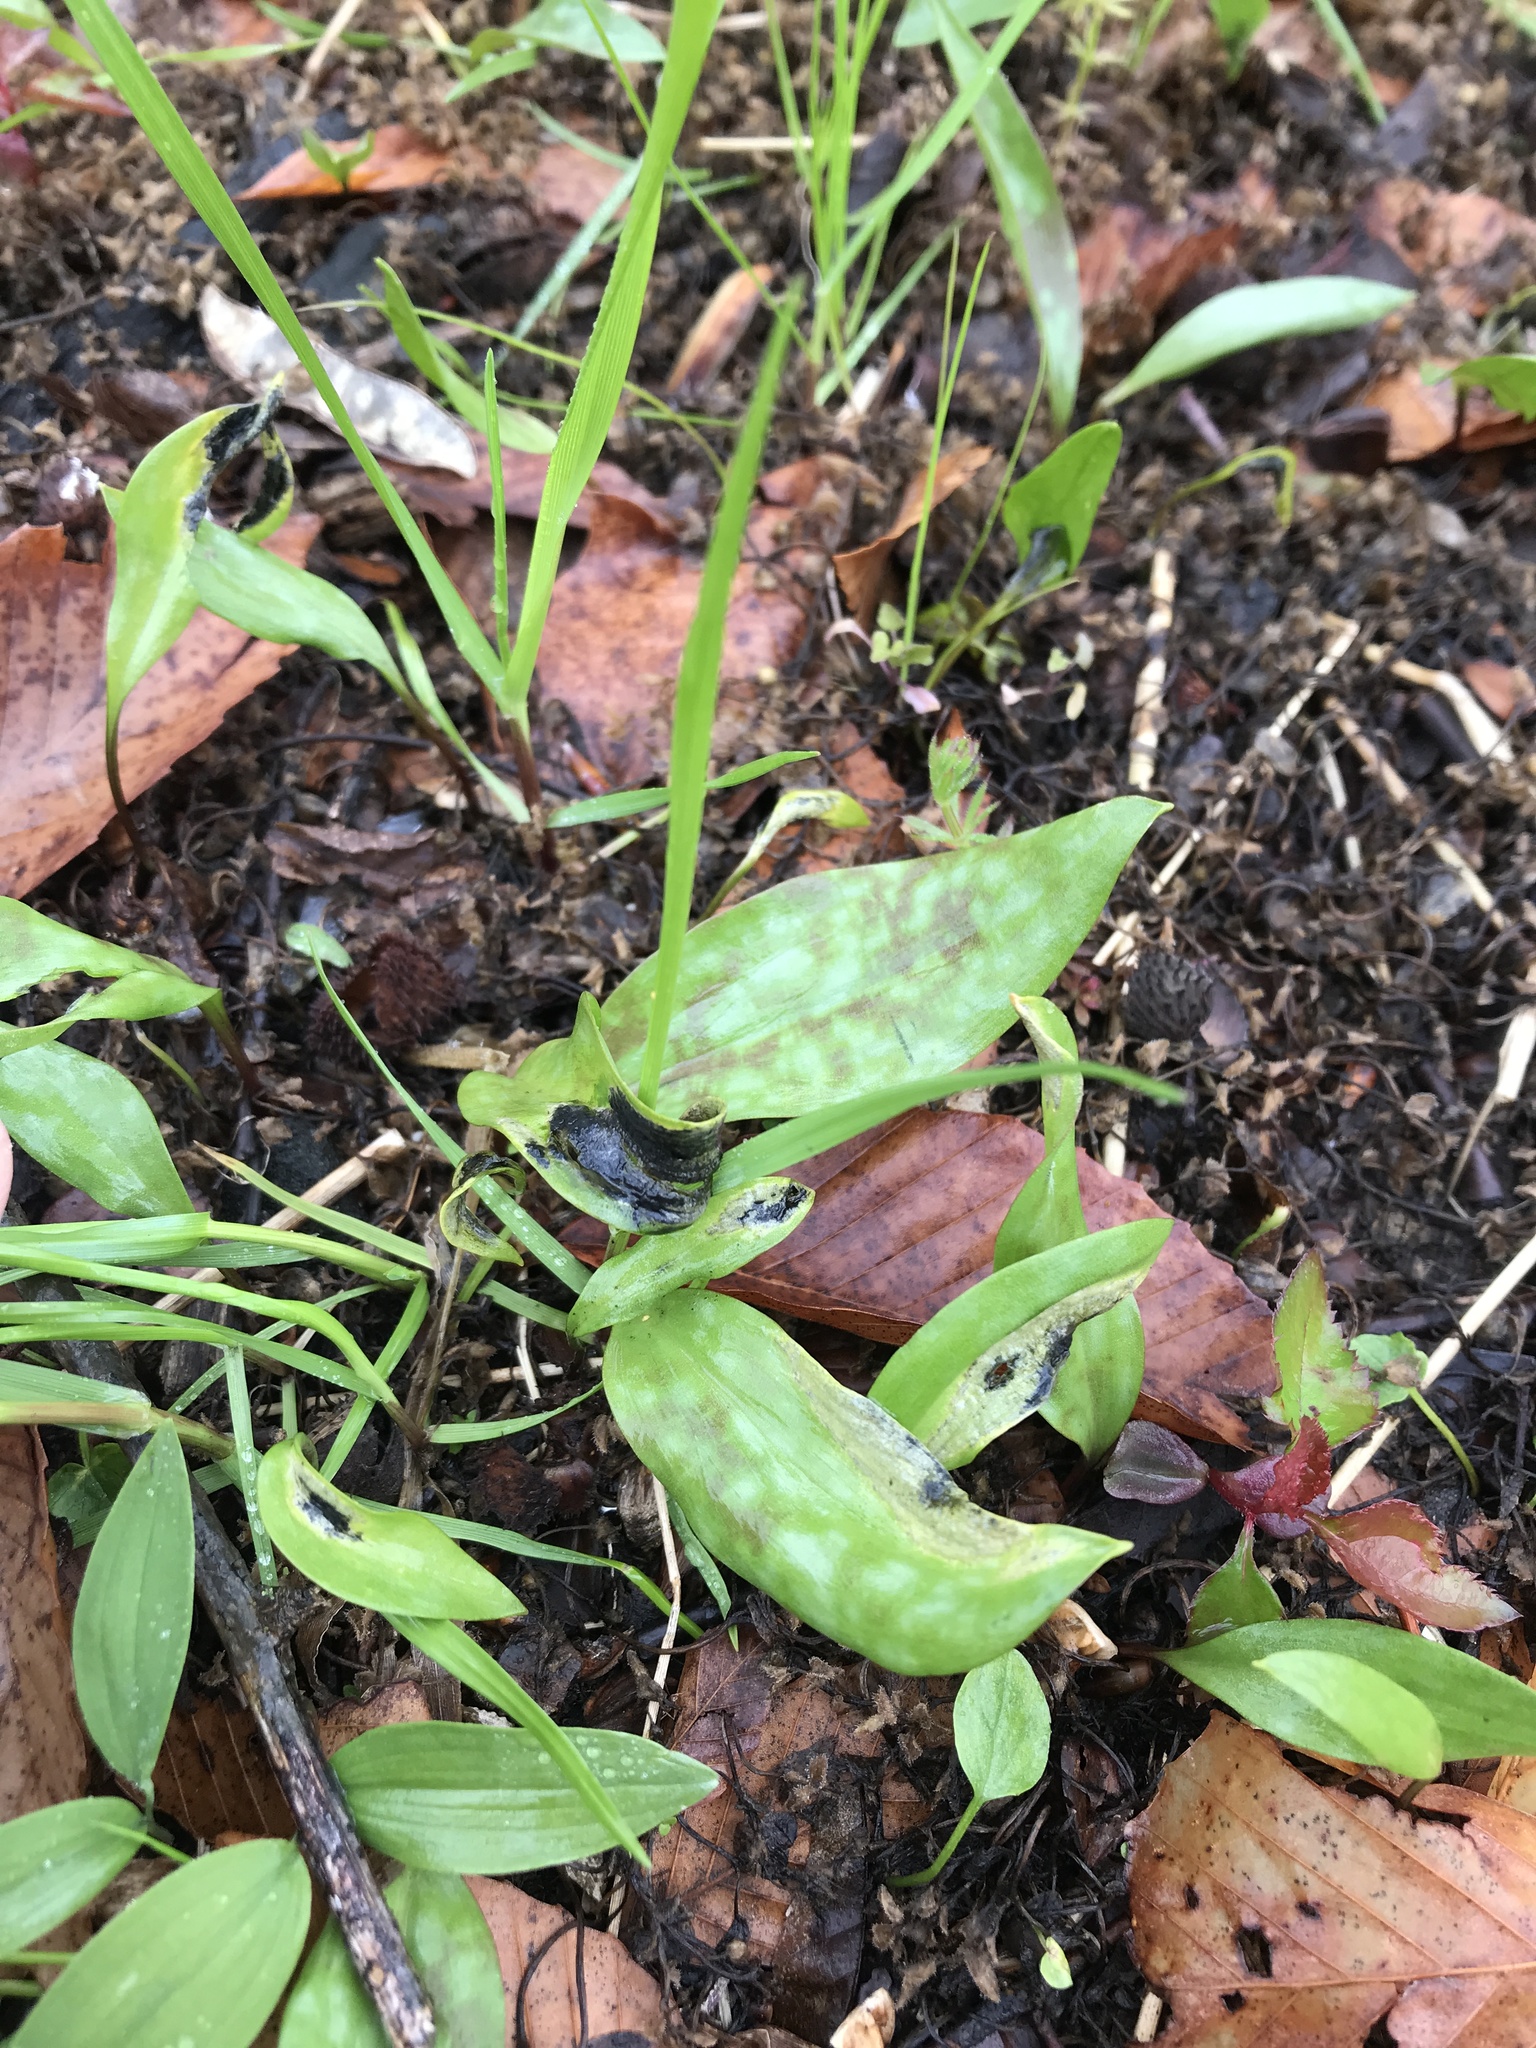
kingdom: Plantae
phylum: Tracheophyta
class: Liliopsida
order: Liliales
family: Liliaceae
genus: Erythronium
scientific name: Erythronium americanum
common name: Yellow adder's-tongue
